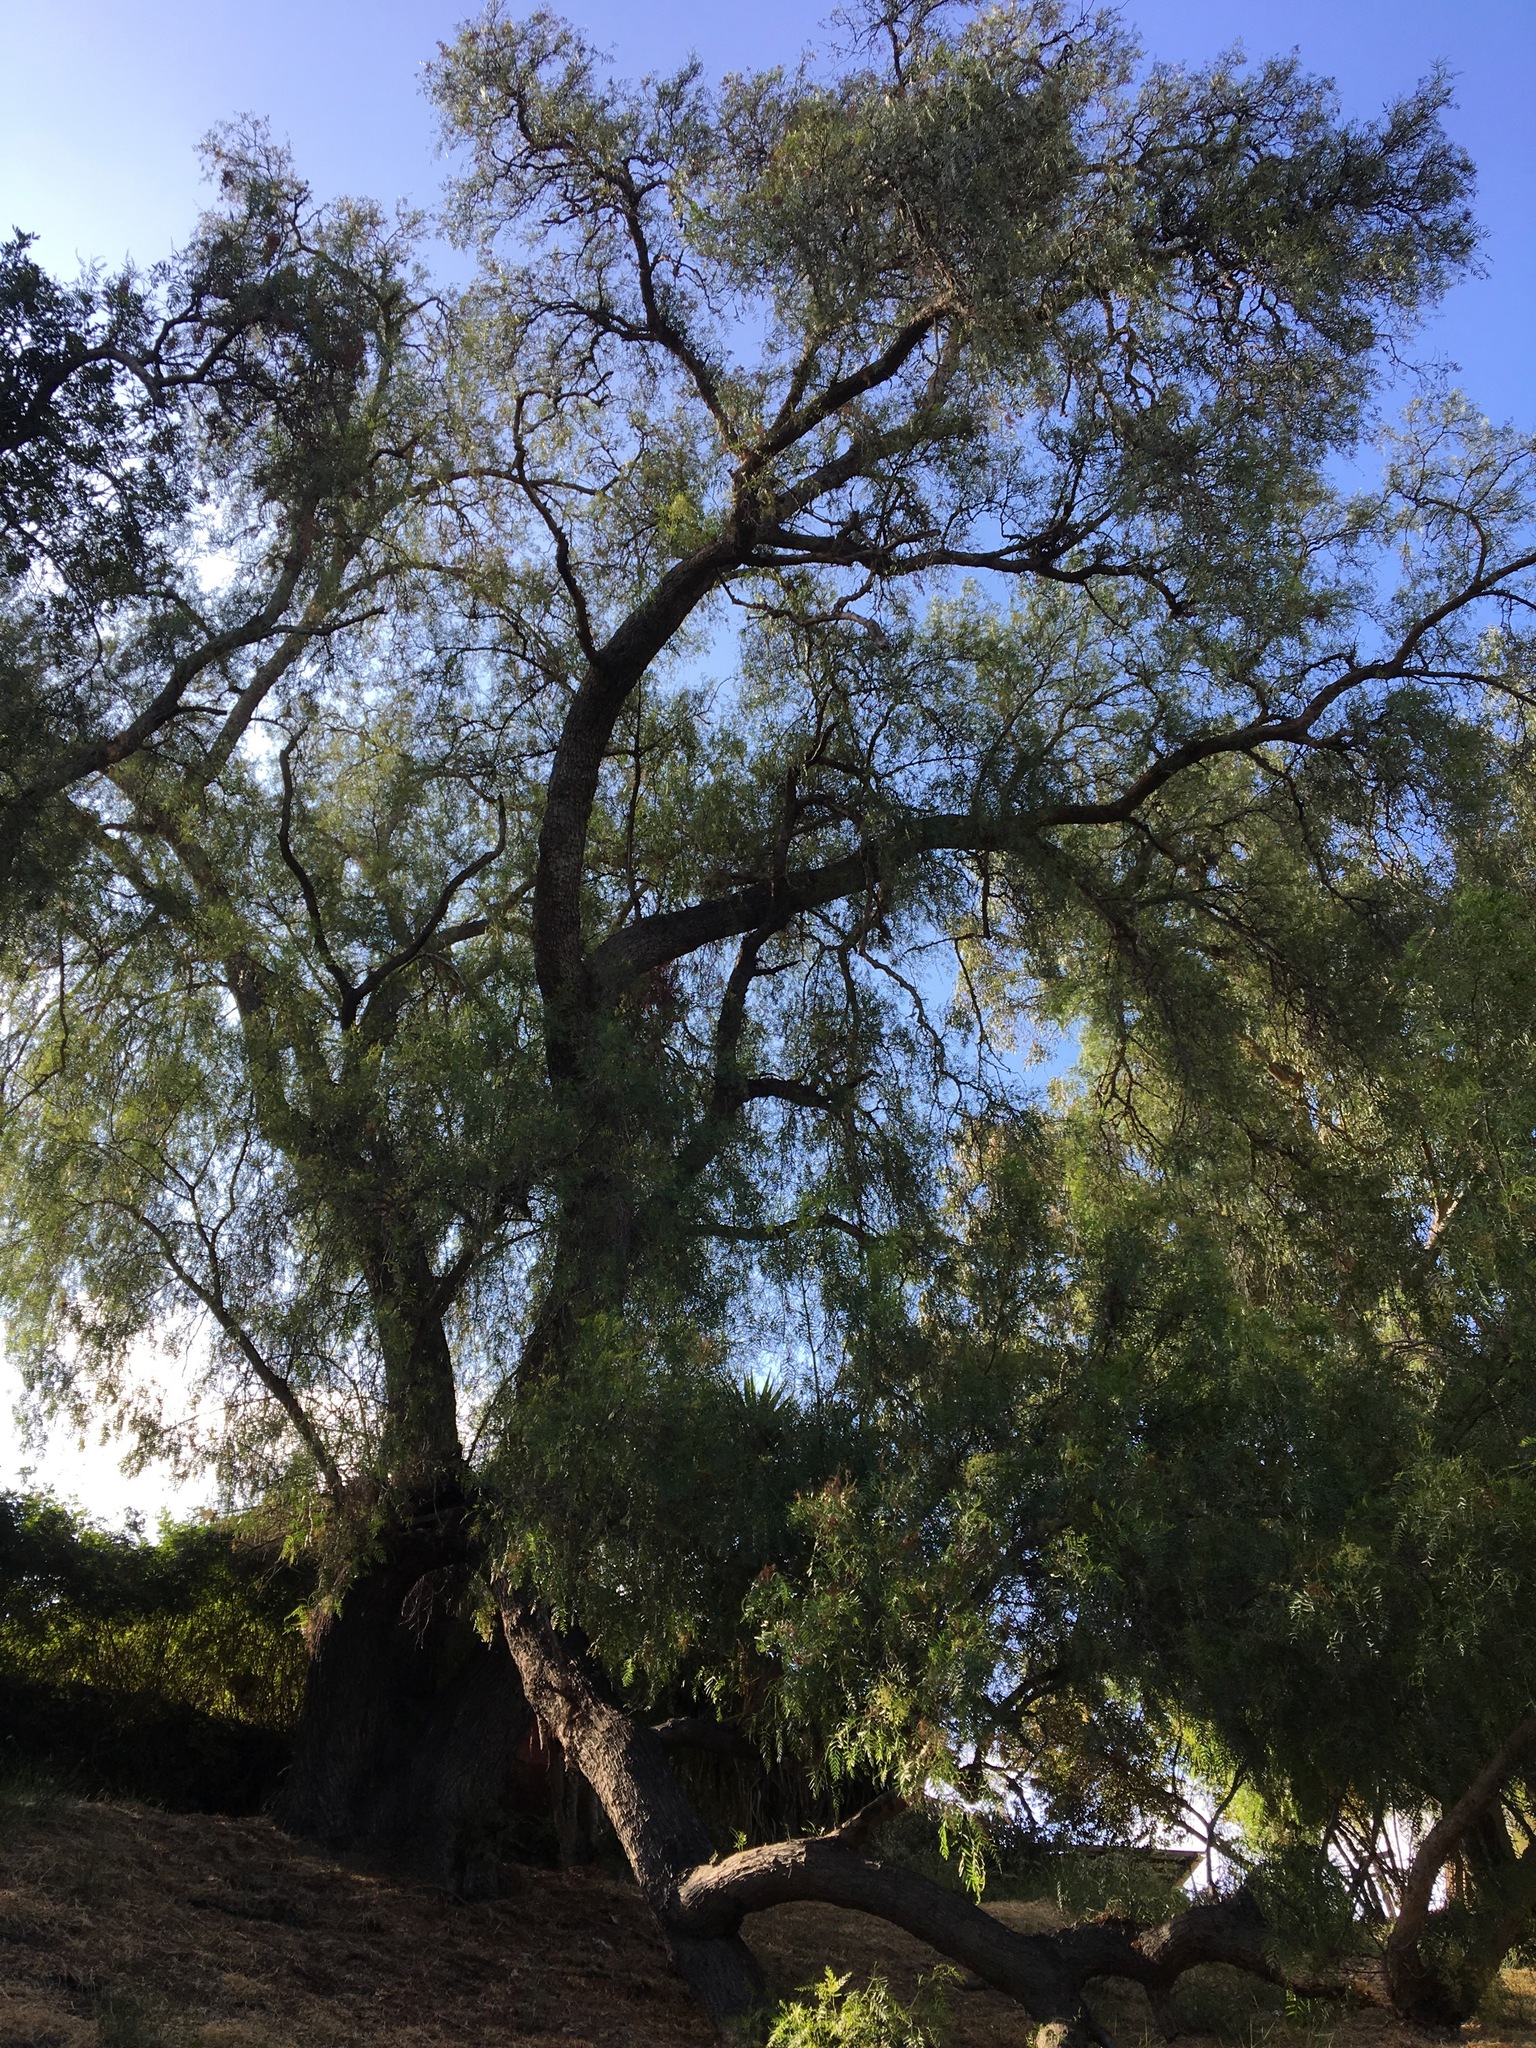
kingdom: Plantae
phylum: Tracheophyta
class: Magnoliopsida
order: Sapindales
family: Anacardiaceae
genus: Schinus
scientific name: Schinus molle
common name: Peruvian peppertree
